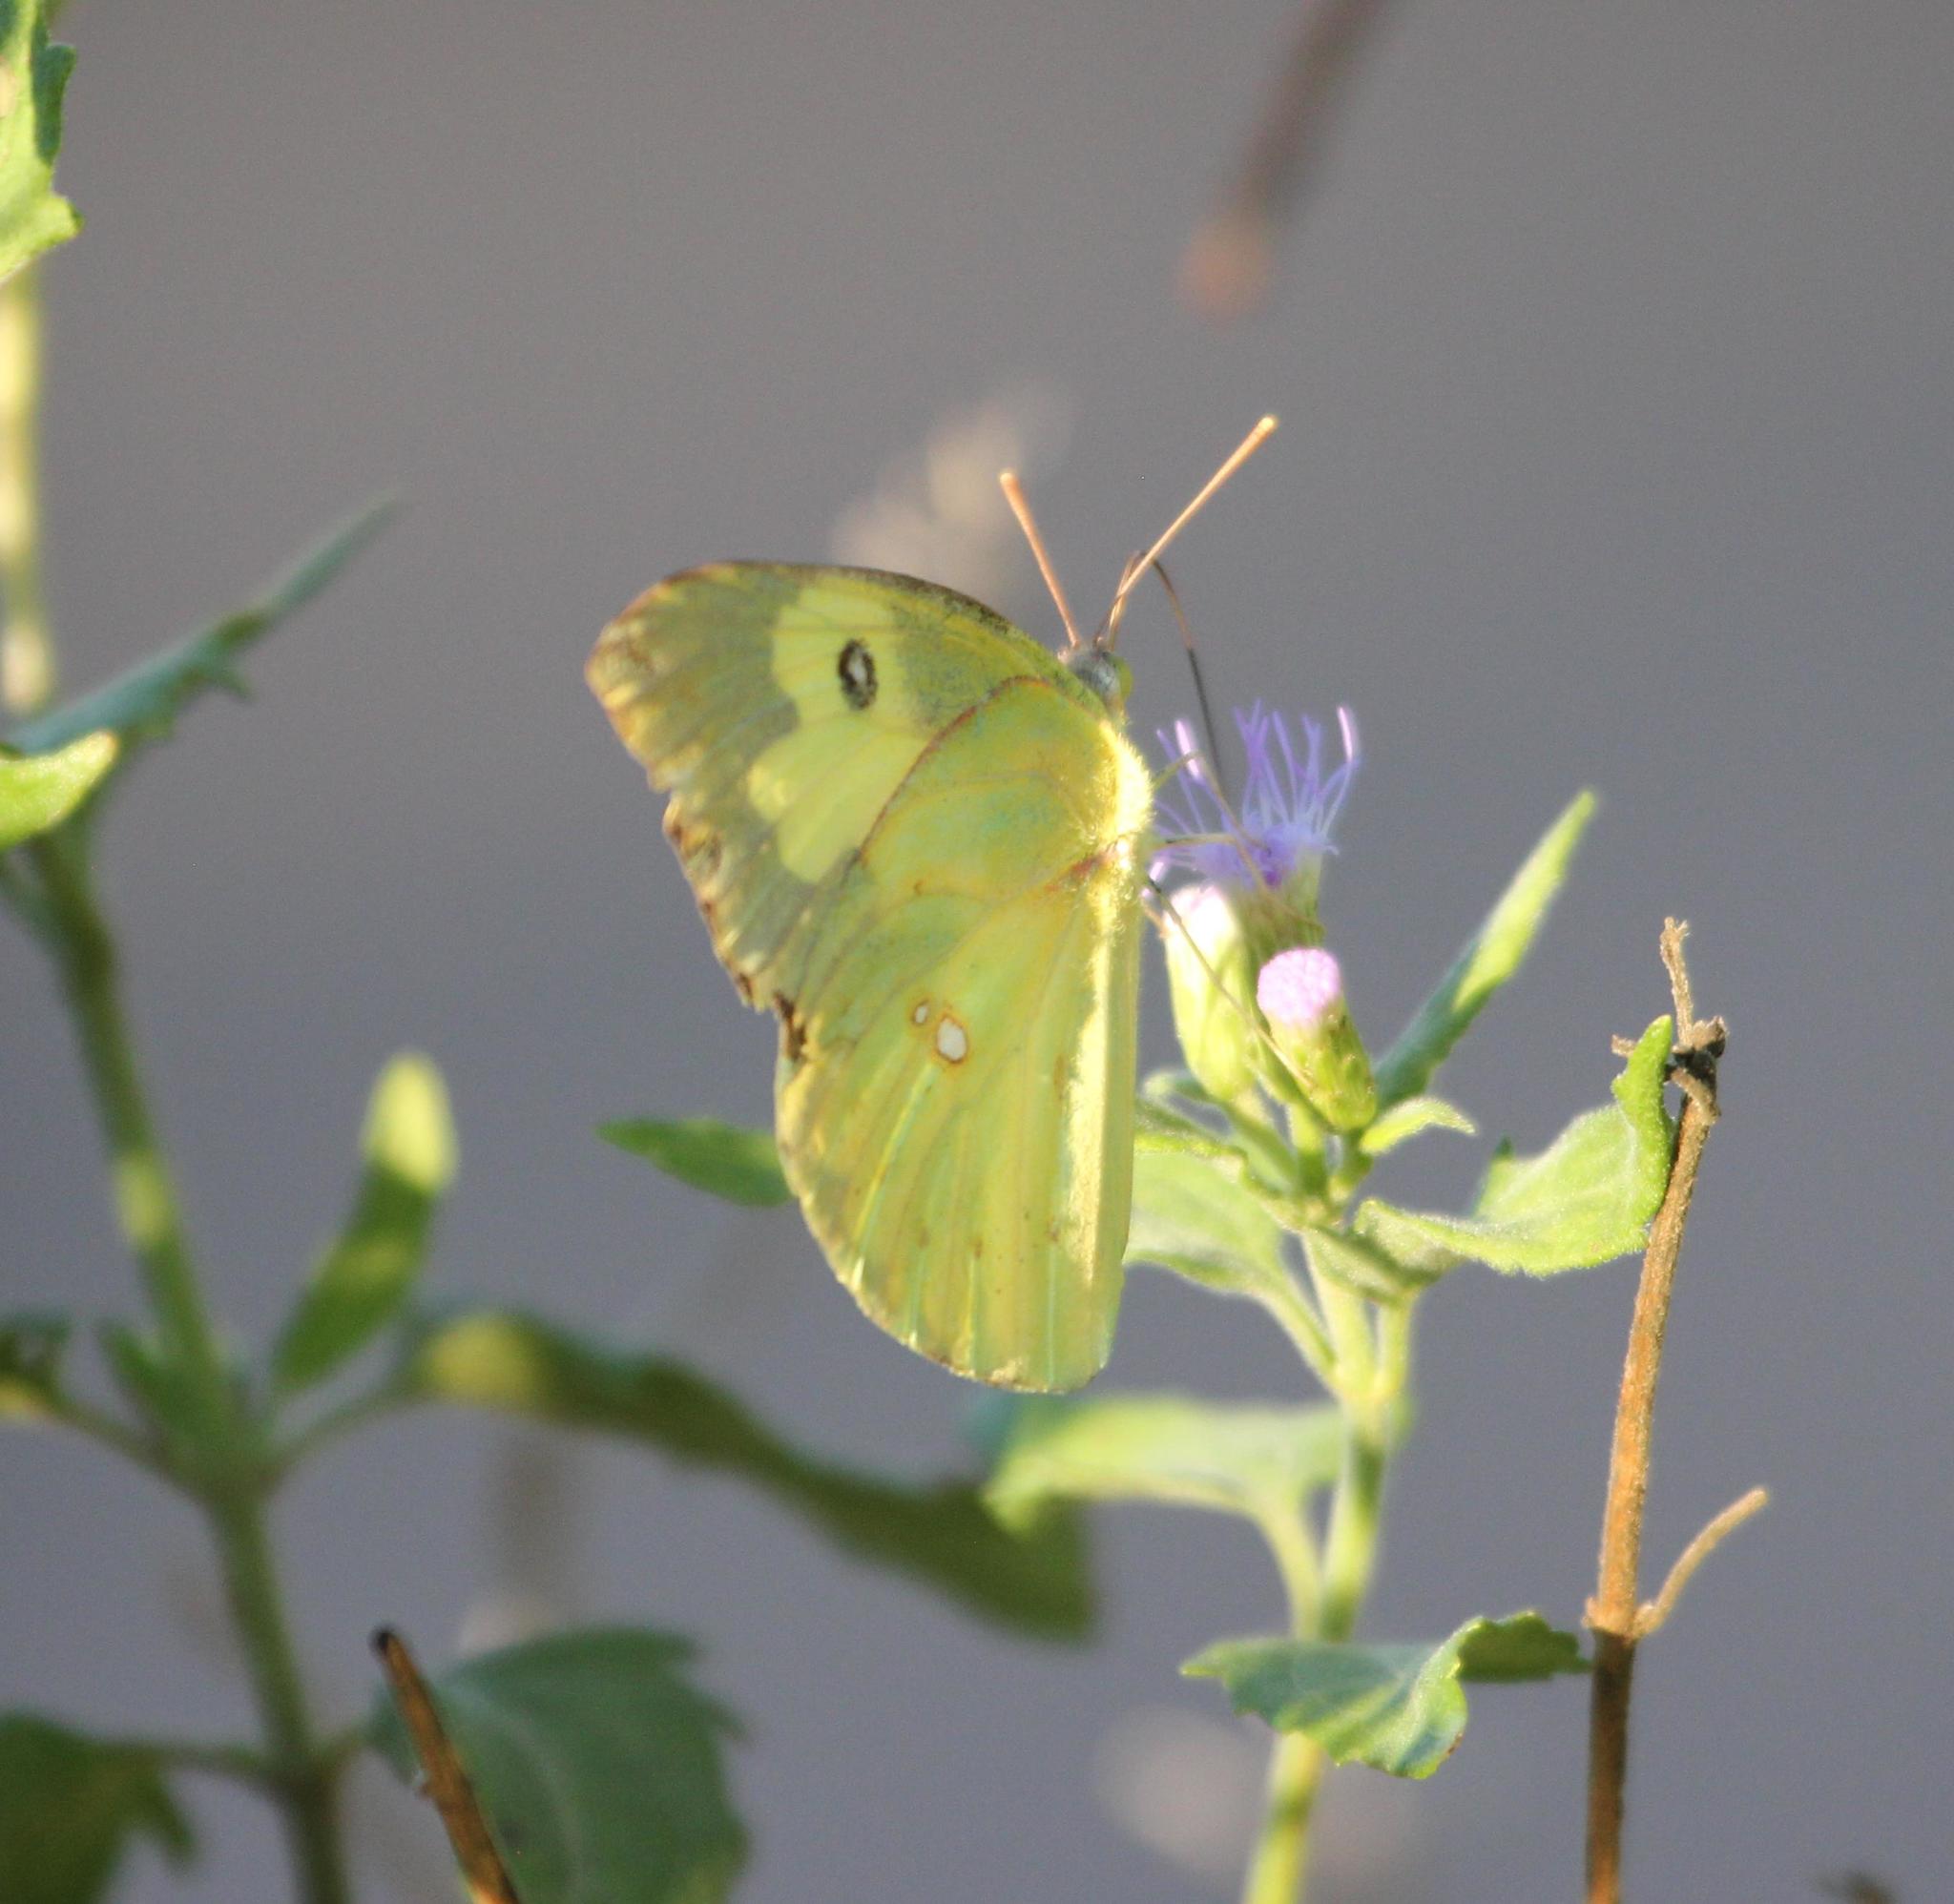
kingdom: Animalia
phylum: Arthropoda
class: Insecta
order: Lepidoptera
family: Pieridae
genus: Zerene
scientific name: Zerene cesonia
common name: Southern dogface
